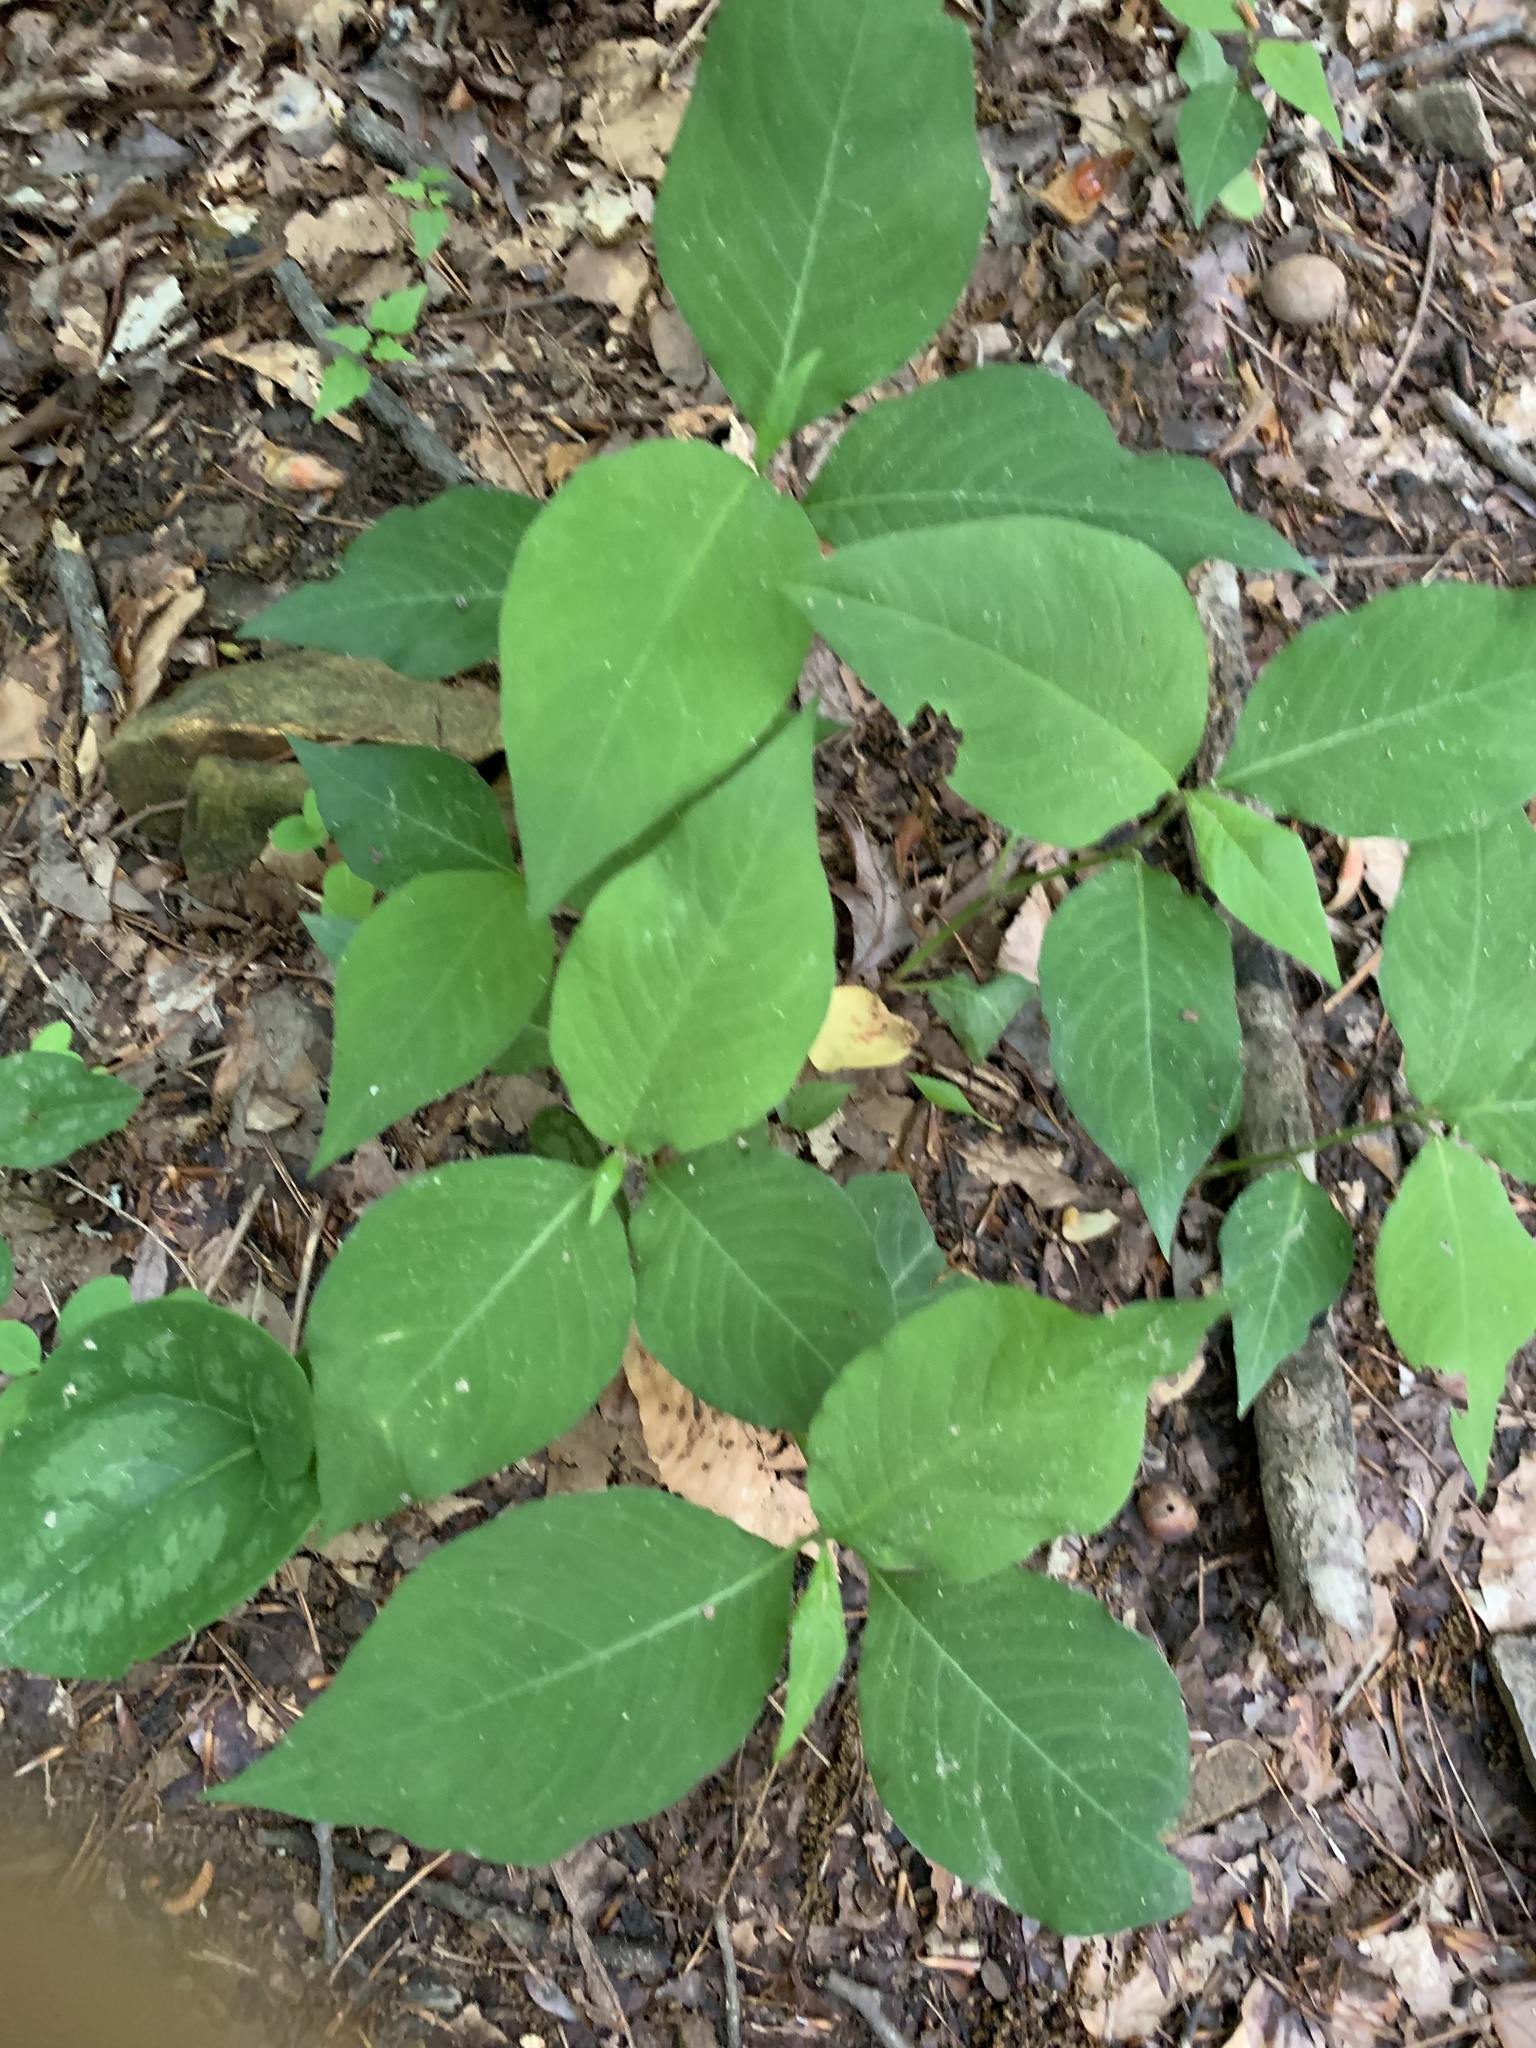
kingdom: Plantae
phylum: Tracheophyta
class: Magnoliopsida
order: Caryophyllales
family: Polygonaceae
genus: Persicaria
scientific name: Persicaria virginiana
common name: Jumpseed
